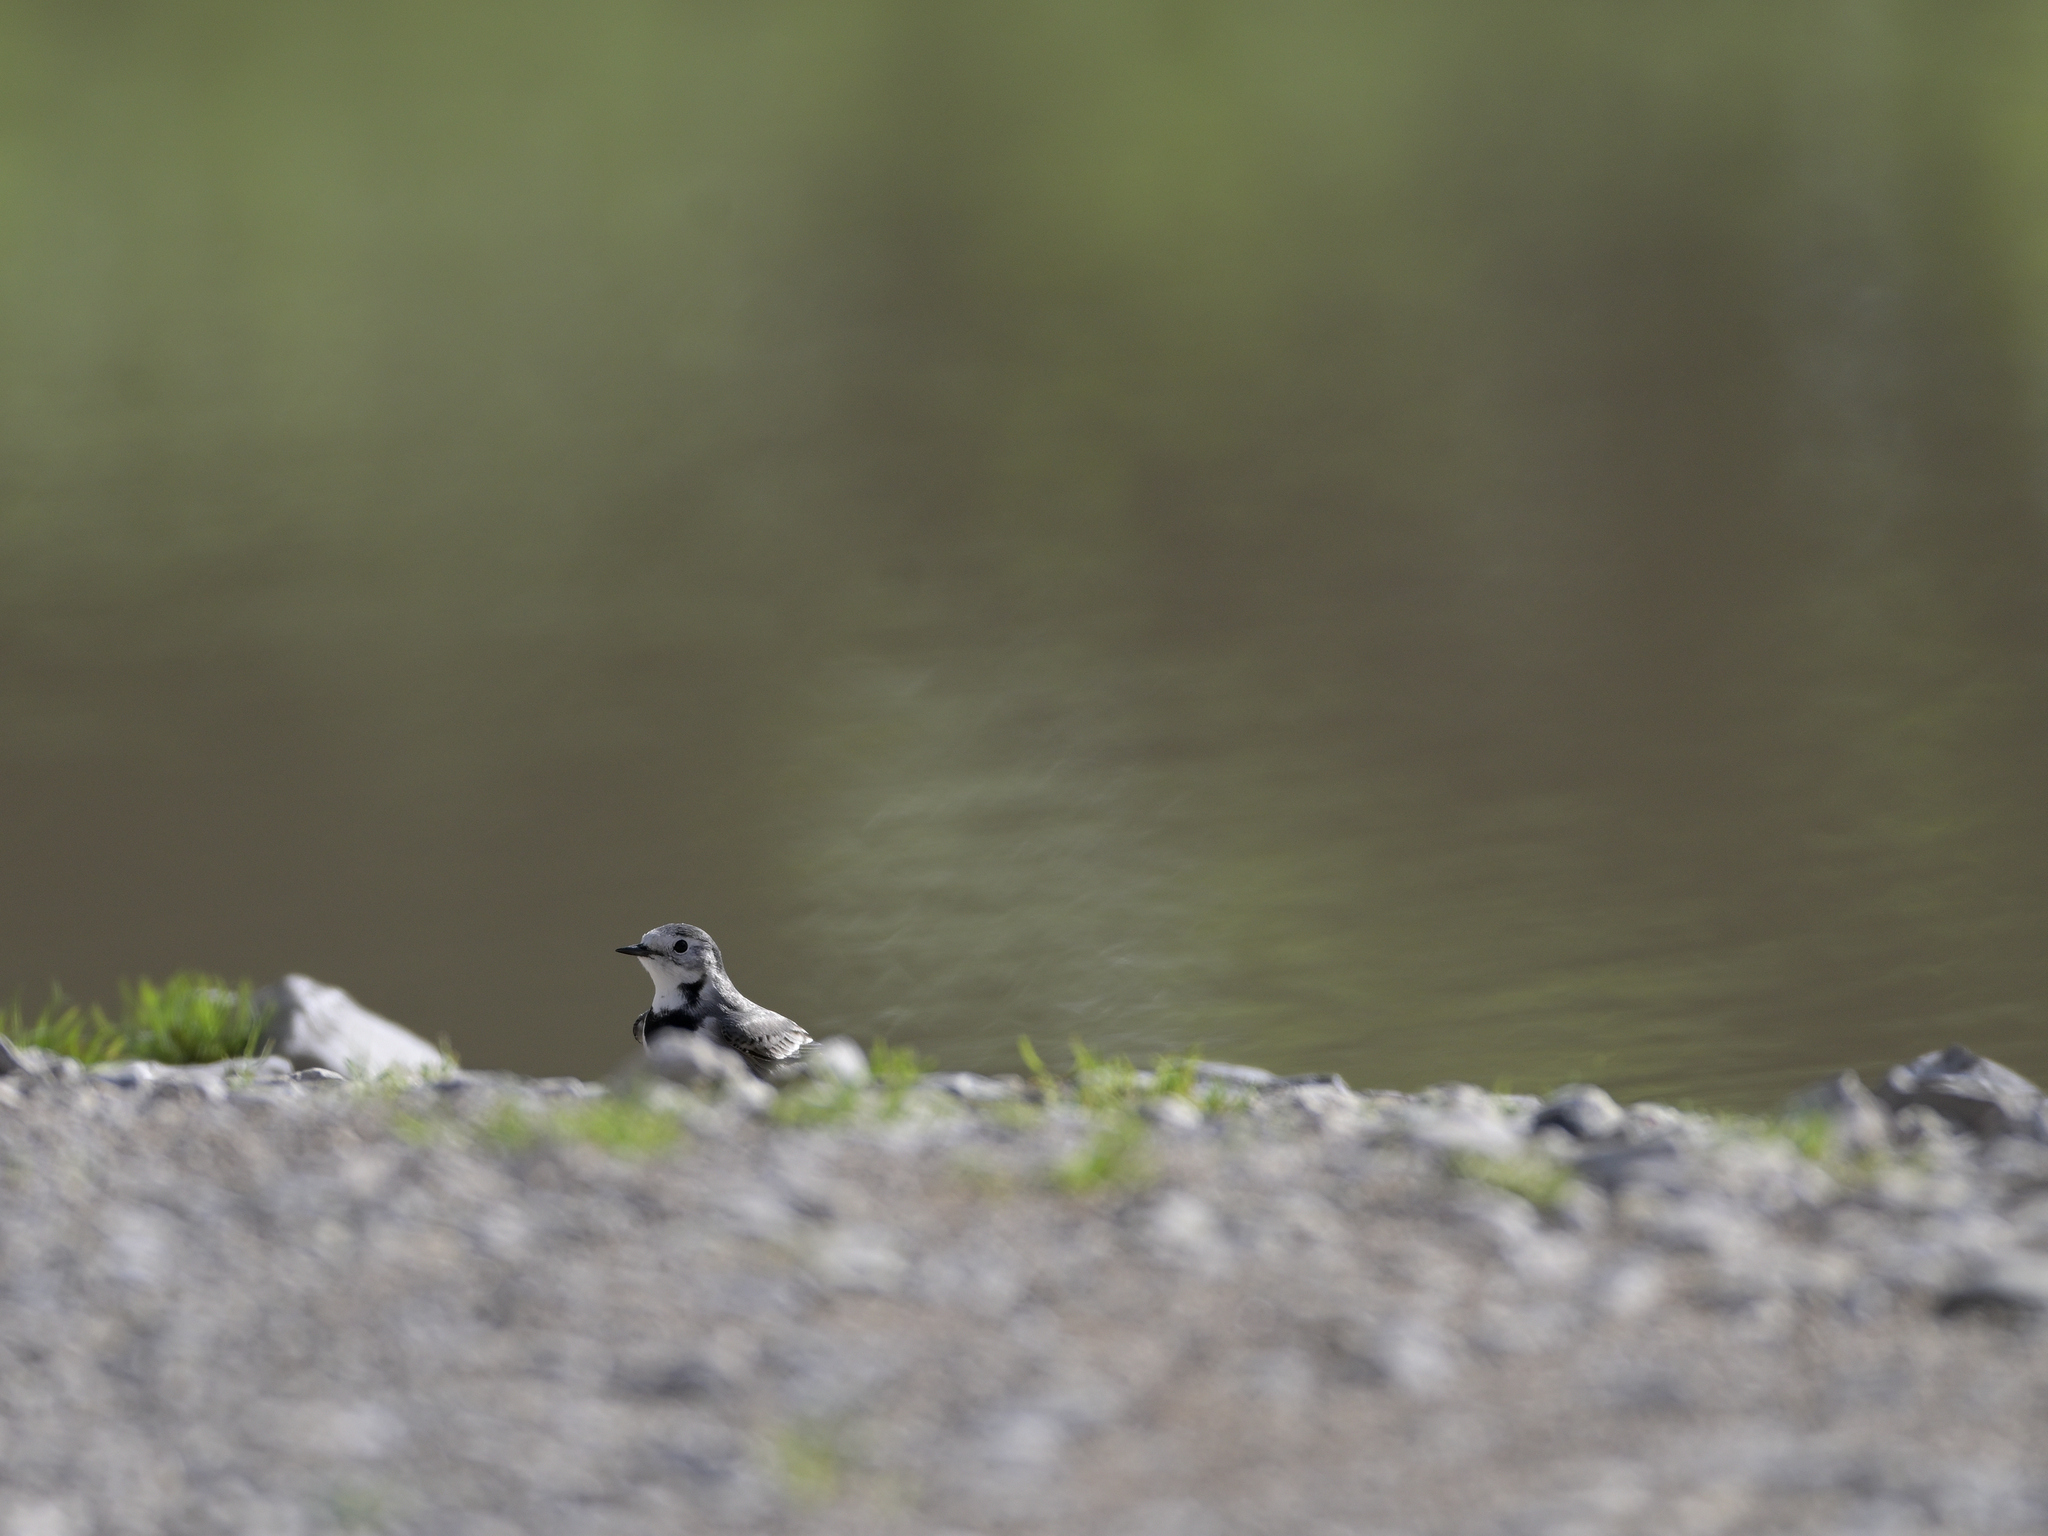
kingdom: Animalia
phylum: Chordata
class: Aves
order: Passeriformes
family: Motacillidae
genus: Motacilla
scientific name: Motacilla alba
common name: White wagtail
